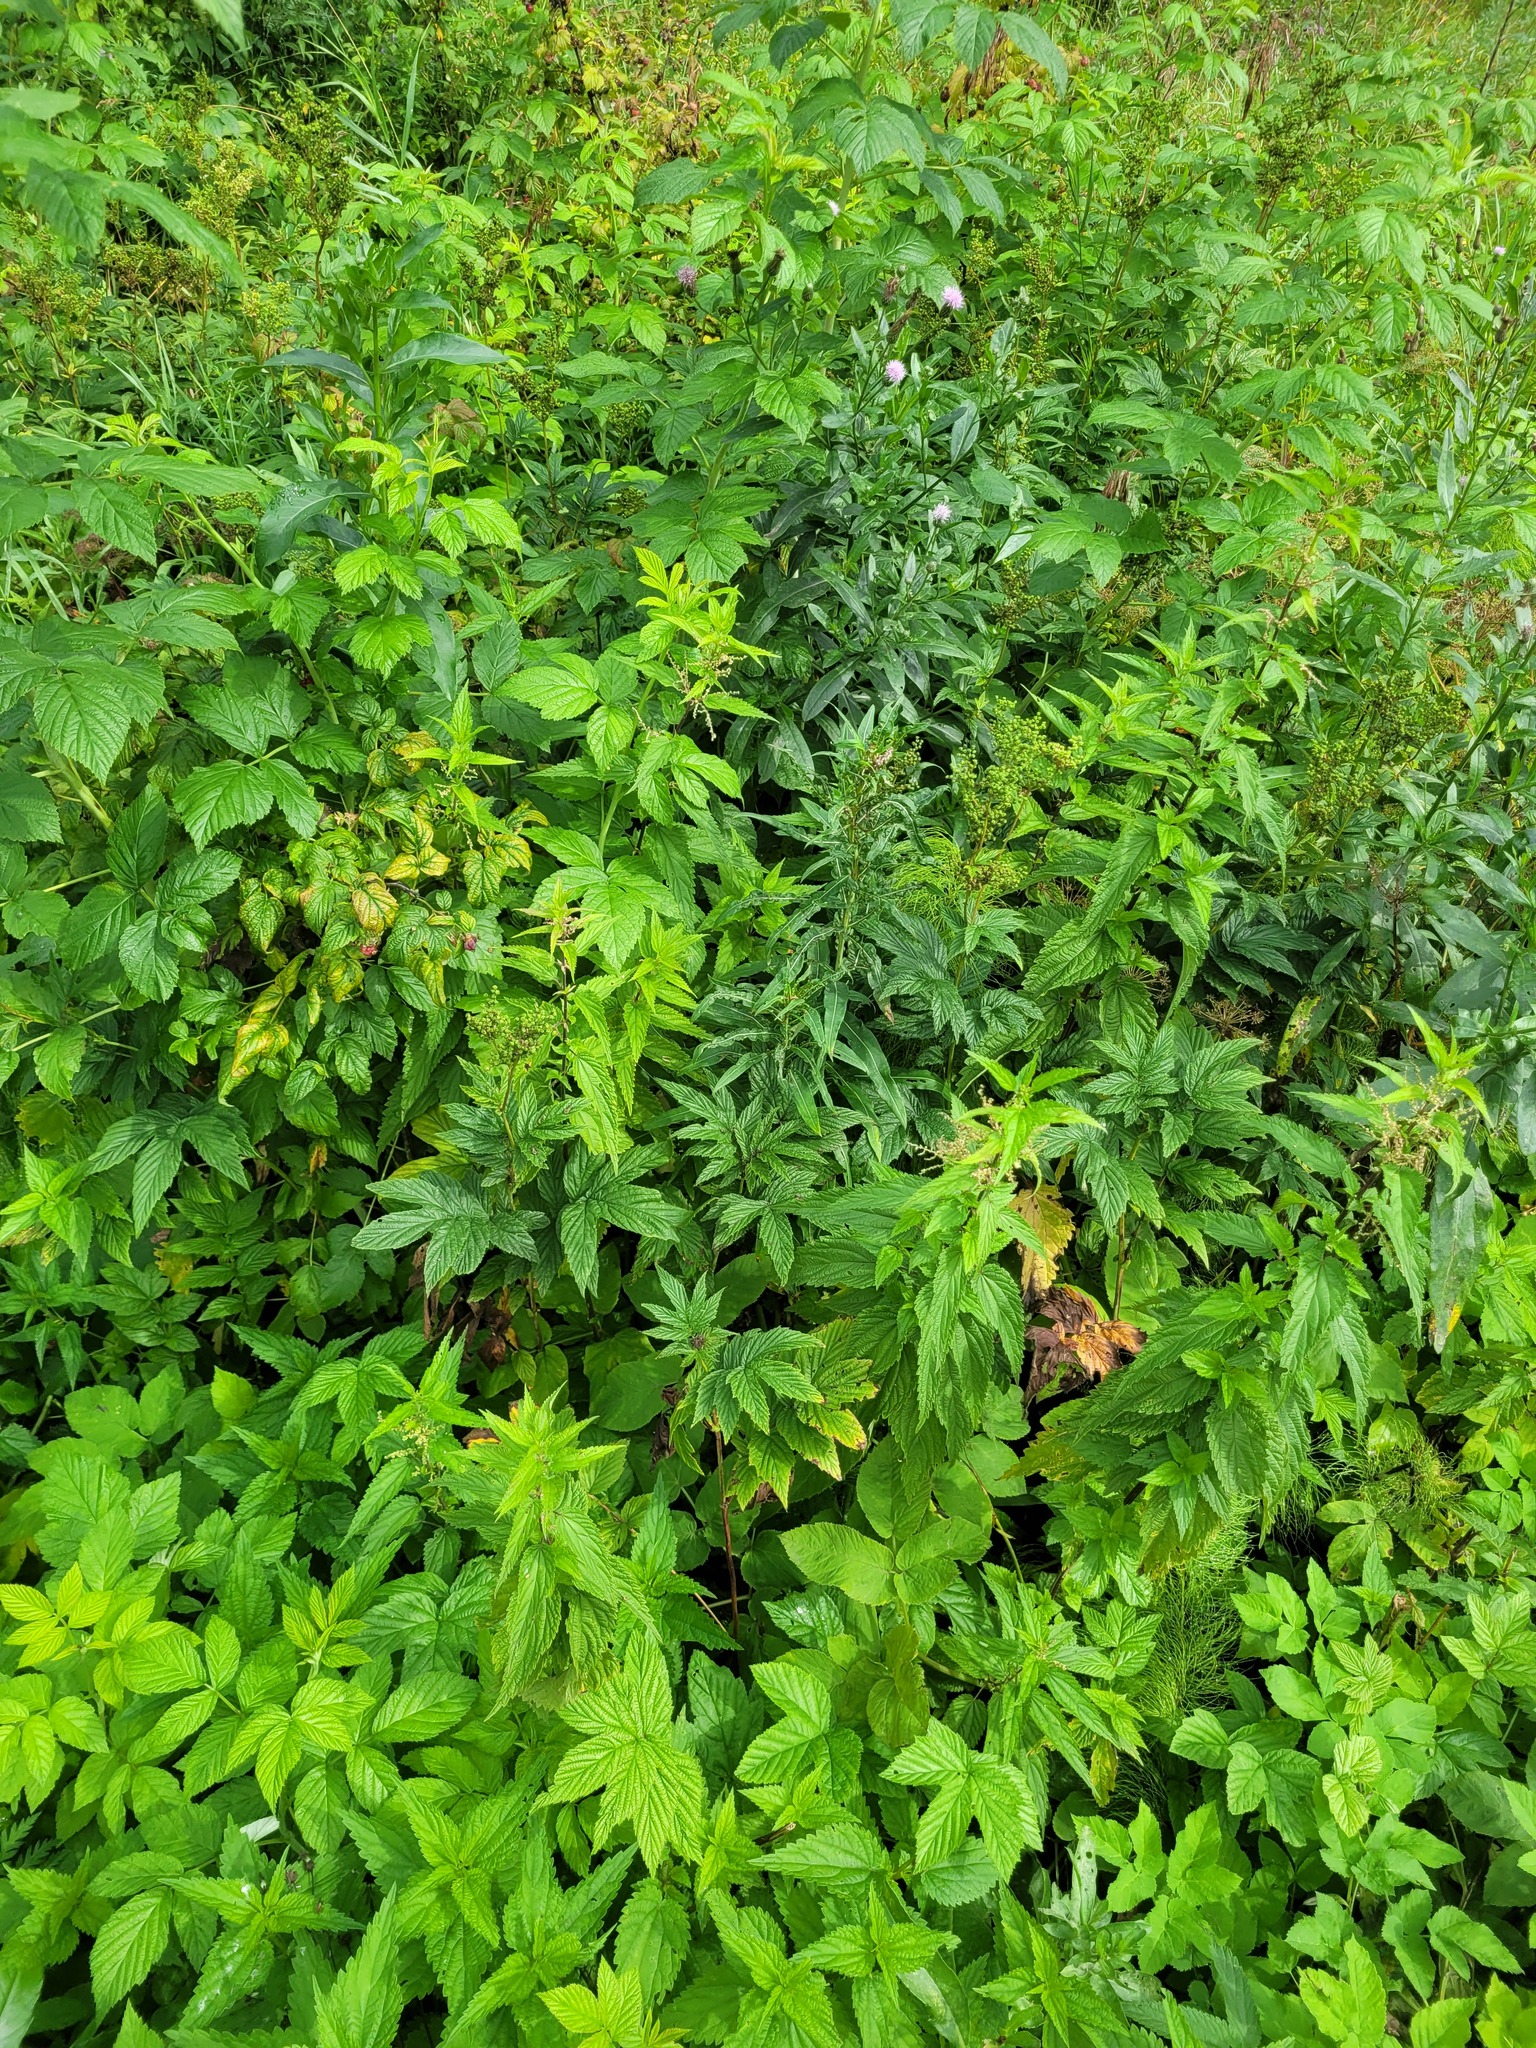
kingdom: Plantae
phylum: Tracheophyta
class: Magnoliopsida
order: Rosales
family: Rosaceae
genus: Filipendula
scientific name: Filipendula ulmaria
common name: Meadowsweet
